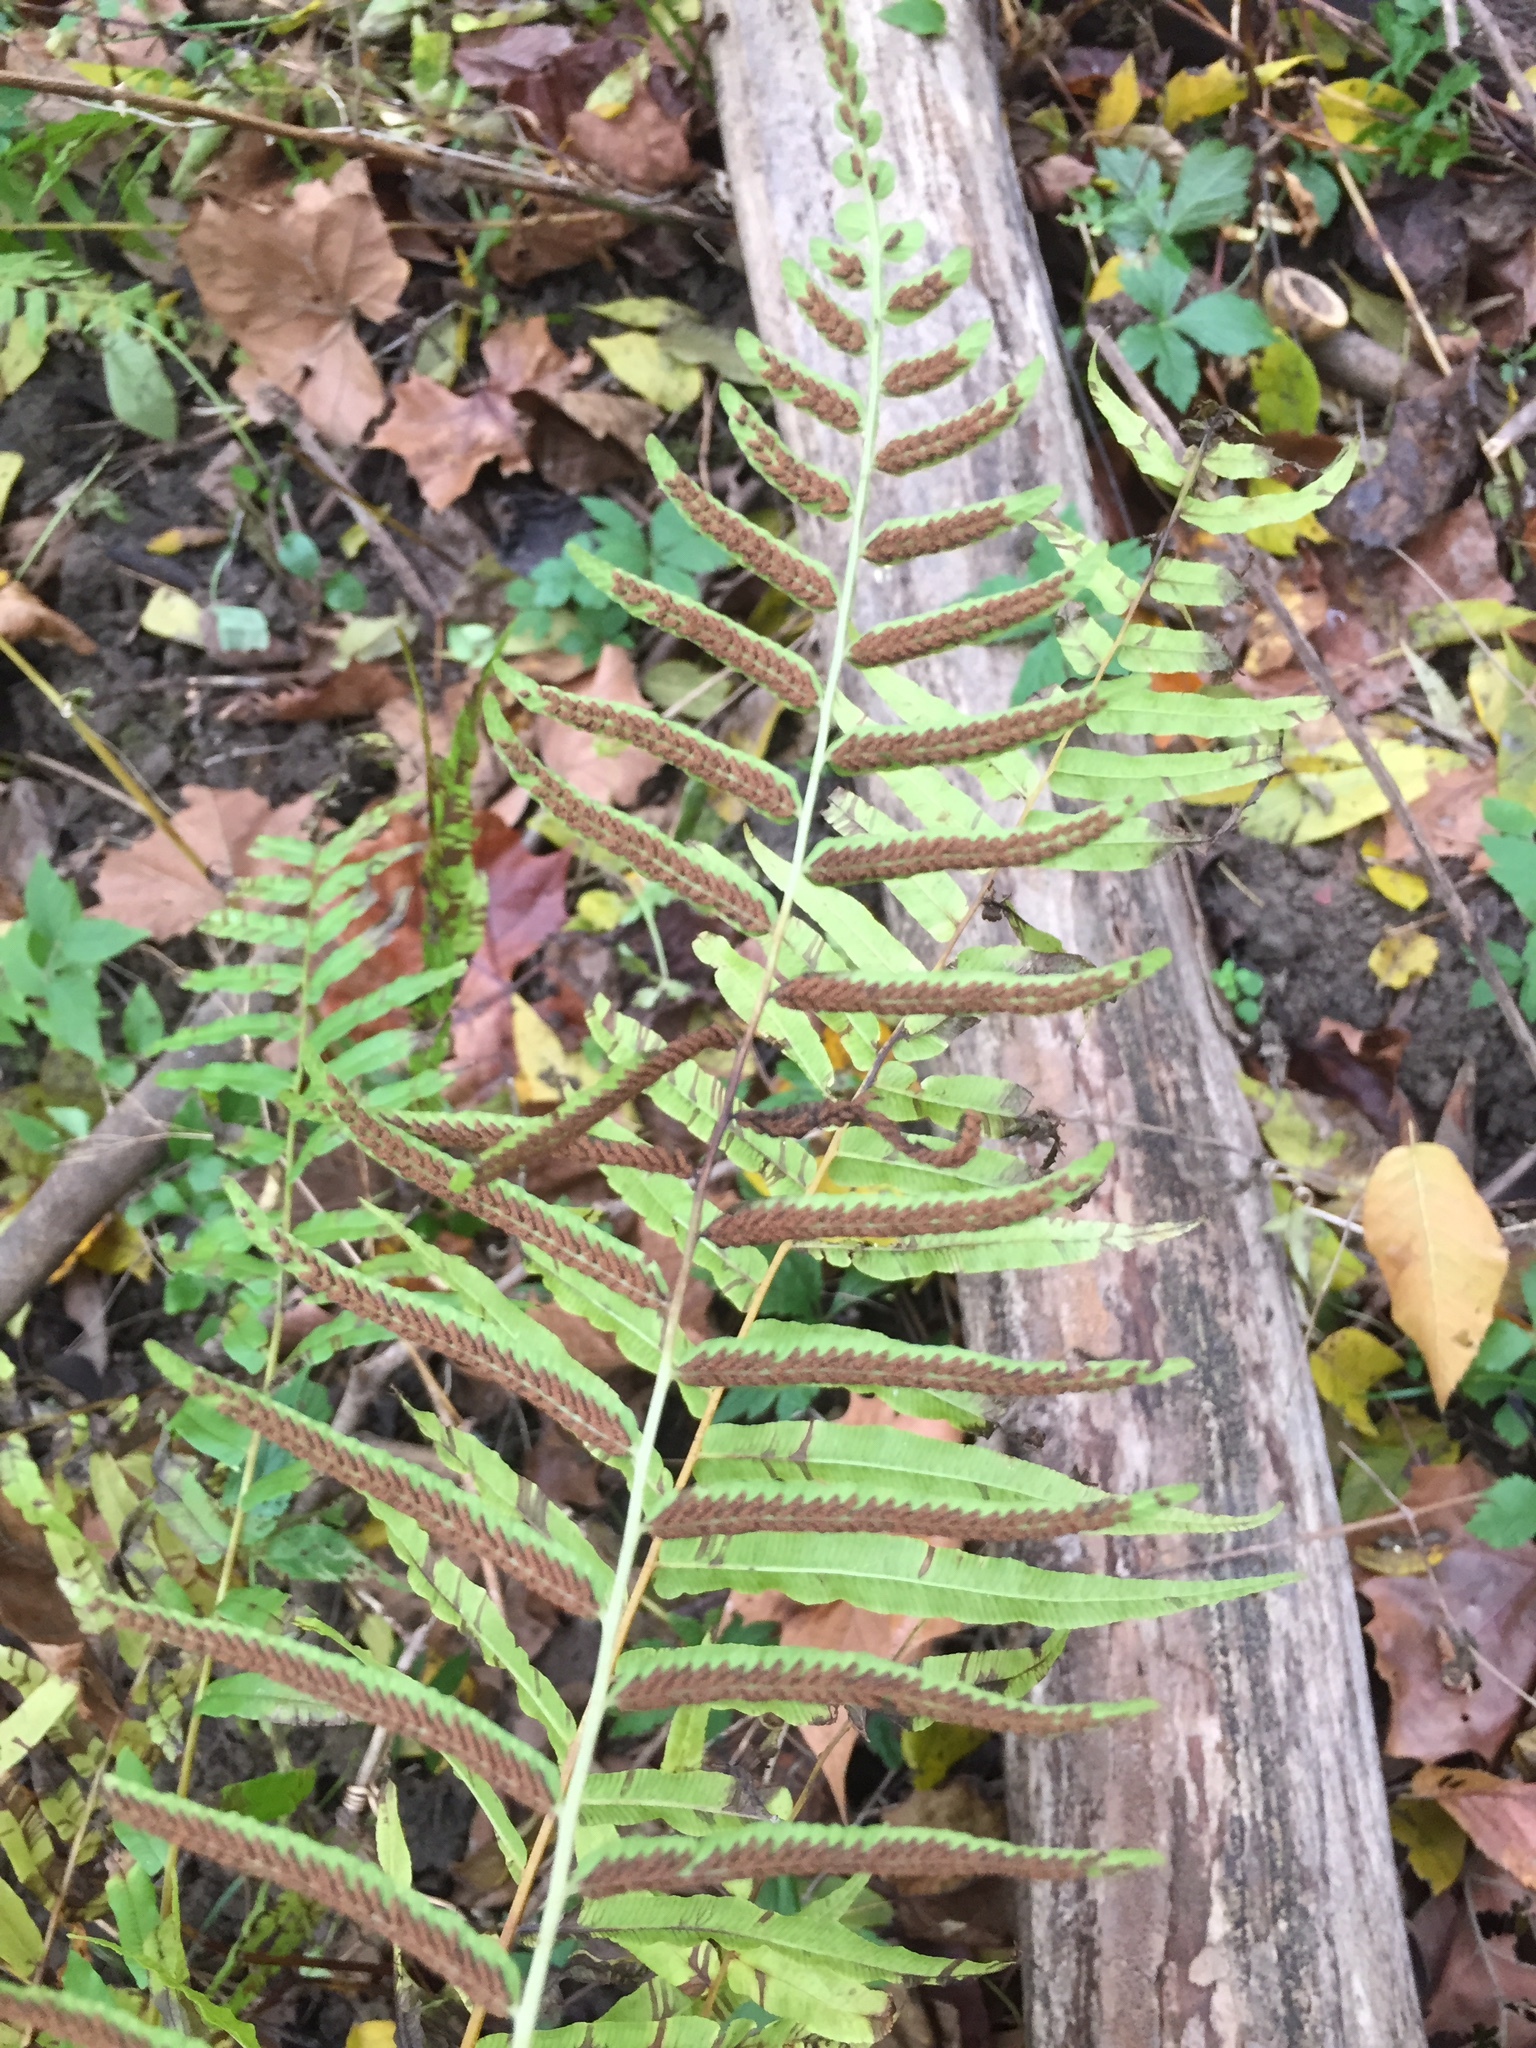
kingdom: Plantae
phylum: Tracheophyta
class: Polypodiopsida
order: Polypodiales
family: Diplaziopsidaceae
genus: Homalosorus
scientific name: Homalosorus pycnocarpos
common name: Glade fern
